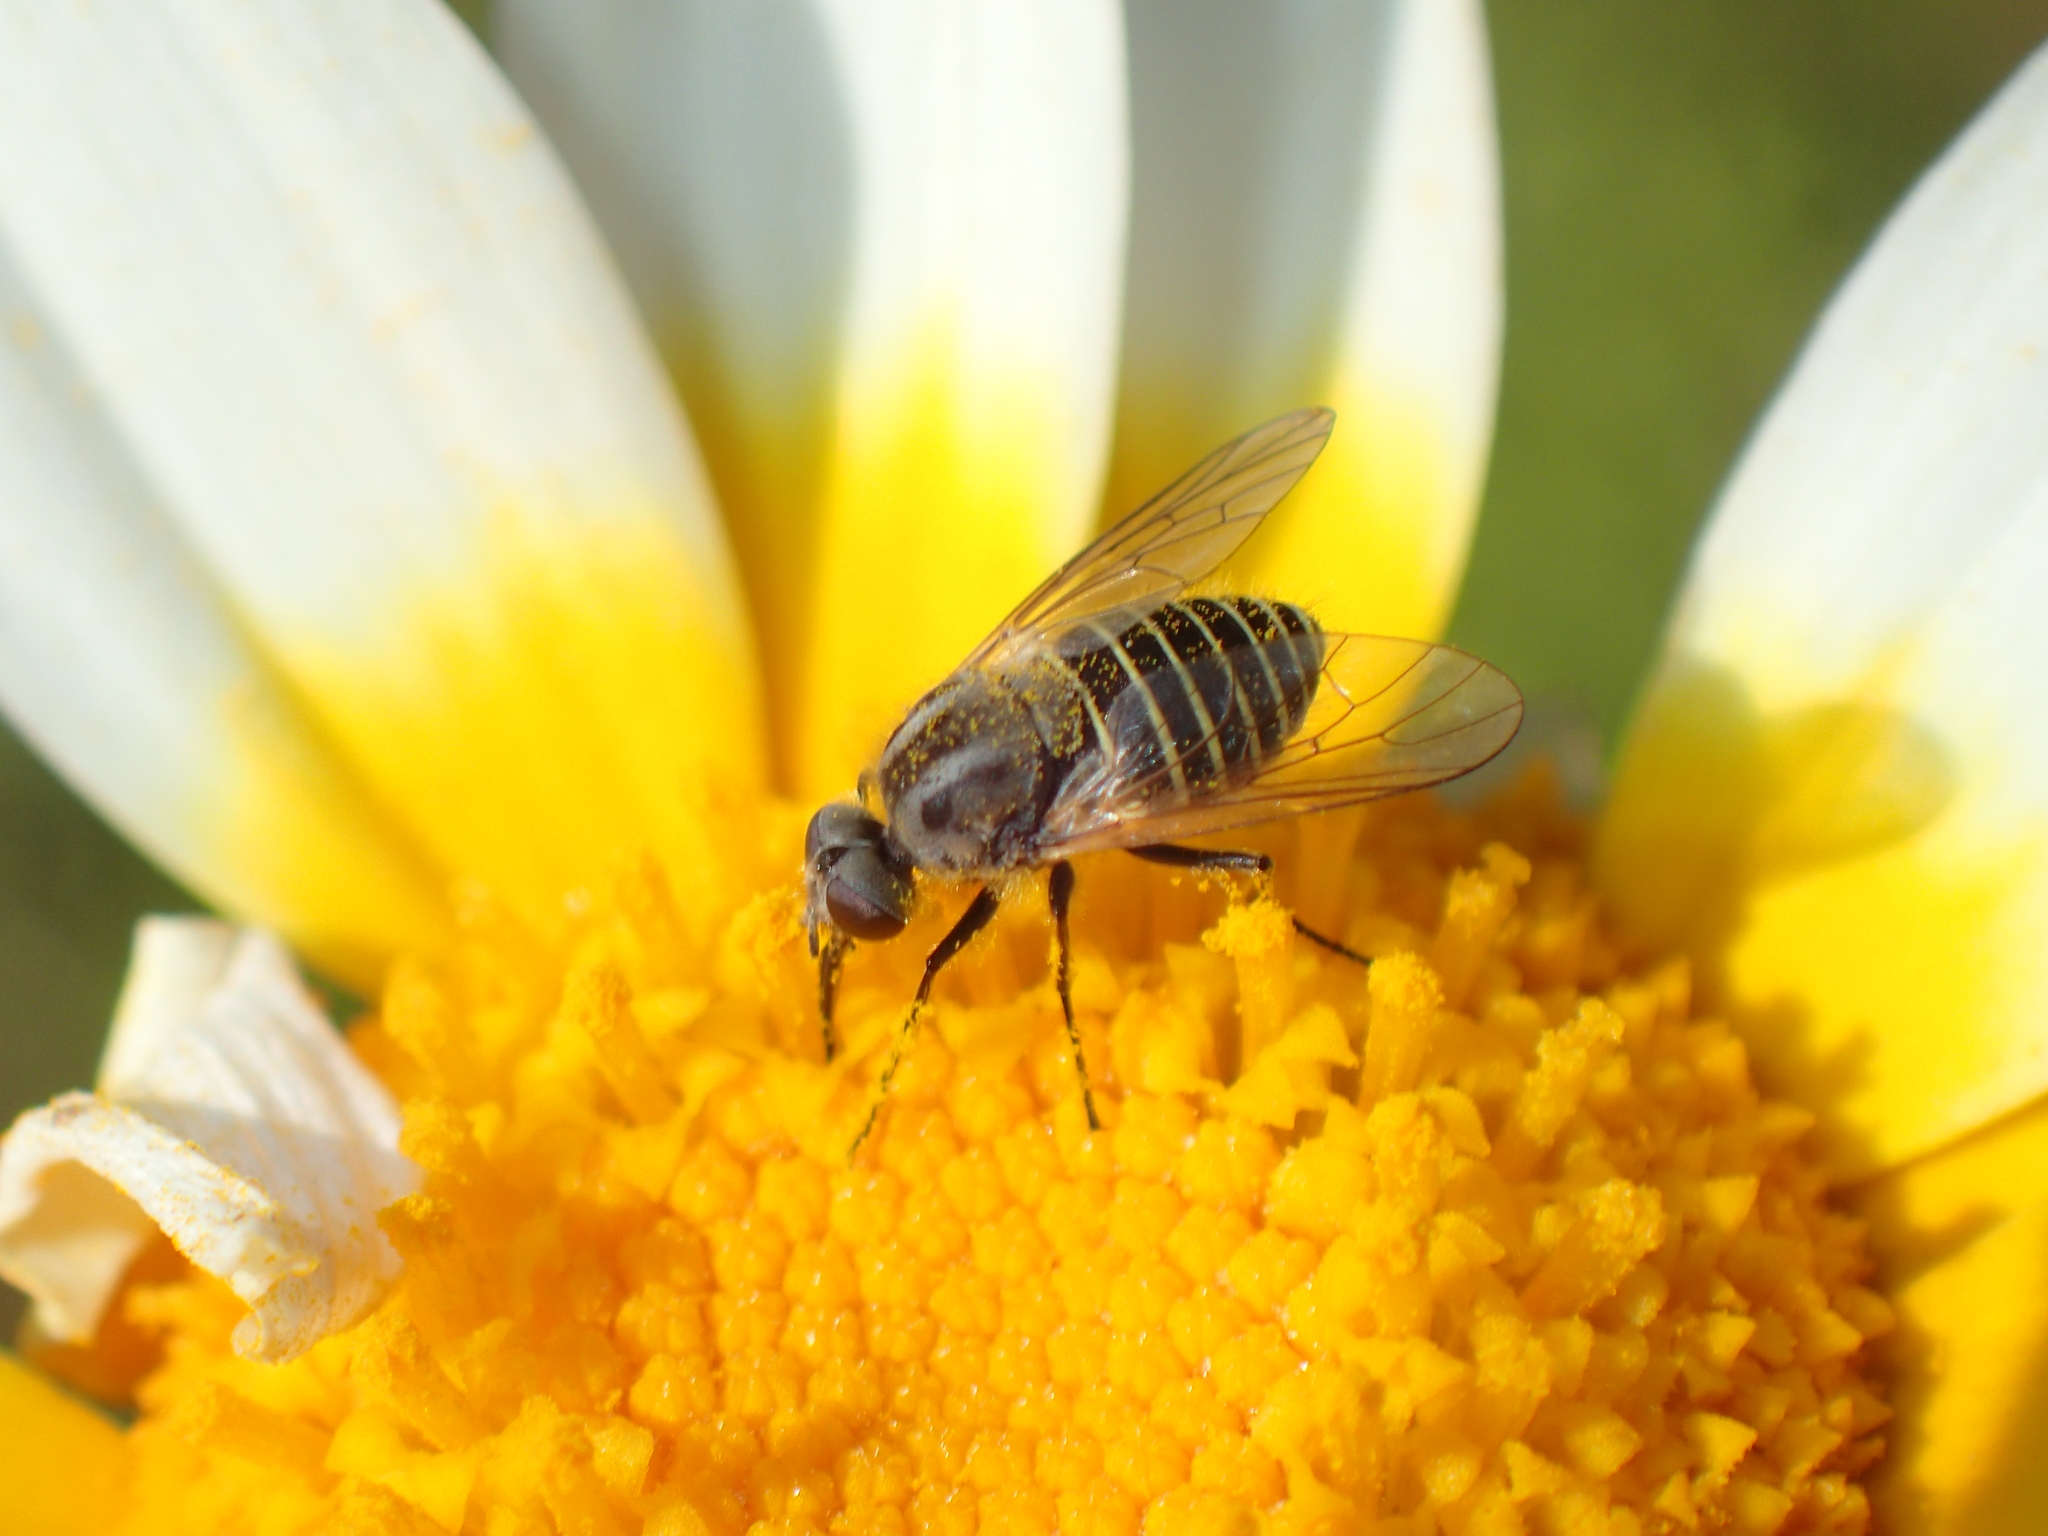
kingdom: Animalia
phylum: Arthropoda
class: Insecta
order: Diptera
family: Bombyliidae
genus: Protypusia
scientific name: Protypusia striata
